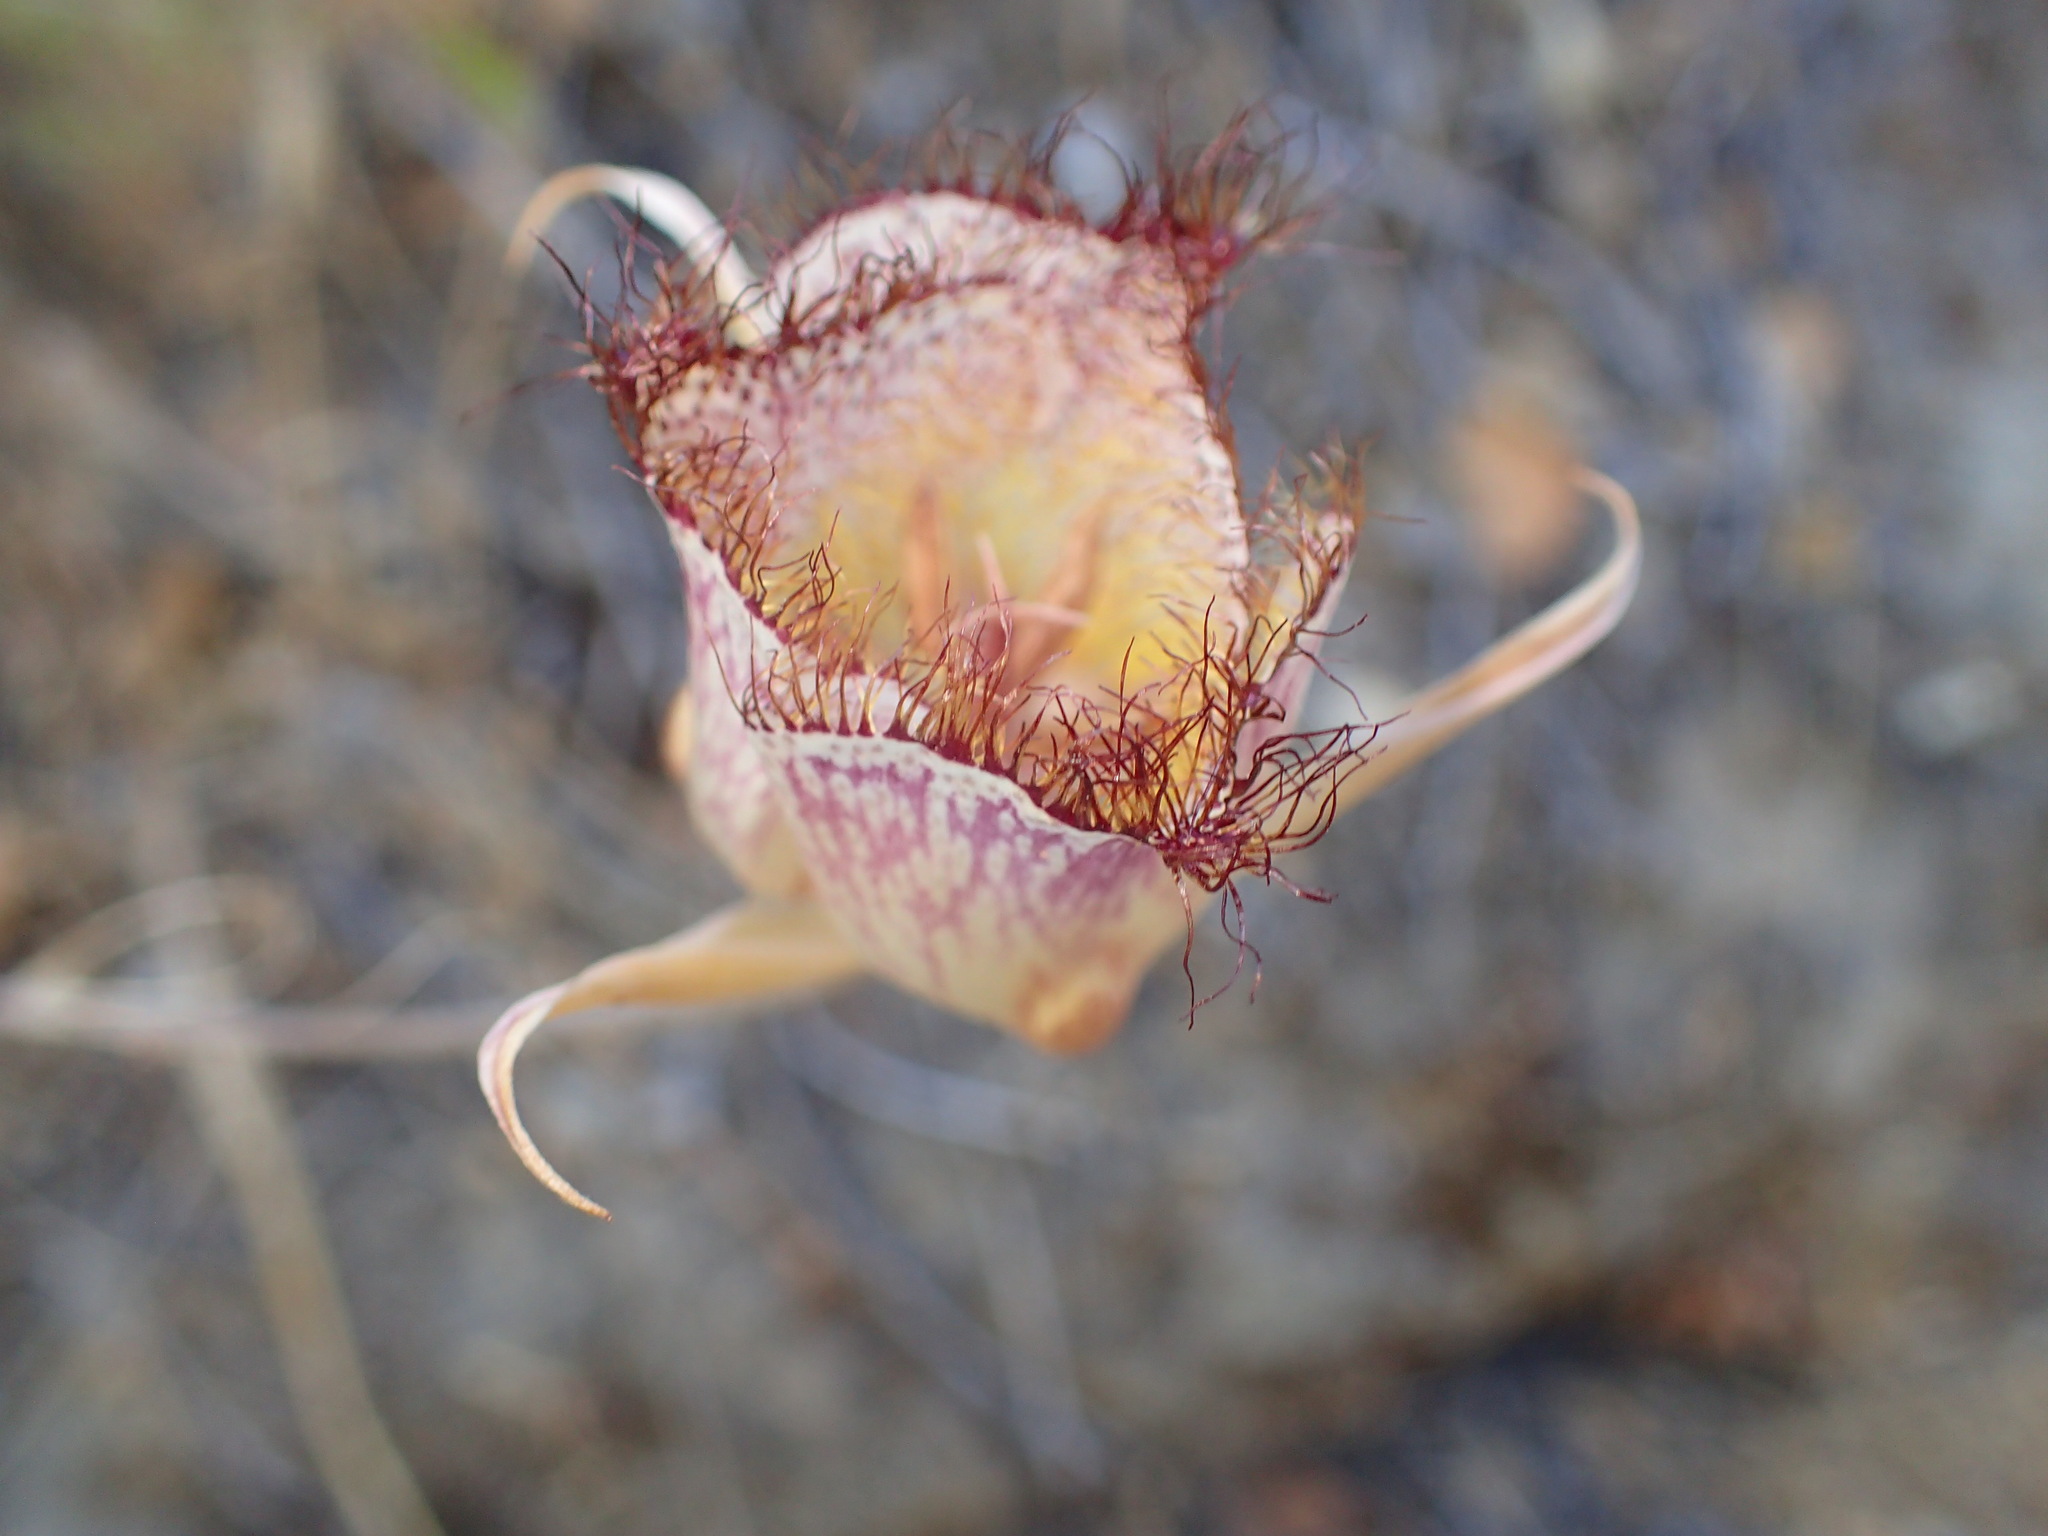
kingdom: Plantae
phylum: Tracheophyta
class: Liliopsida
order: Liliales
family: Liliaceae
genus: Calochortus
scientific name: Calochortus fimbriatus
